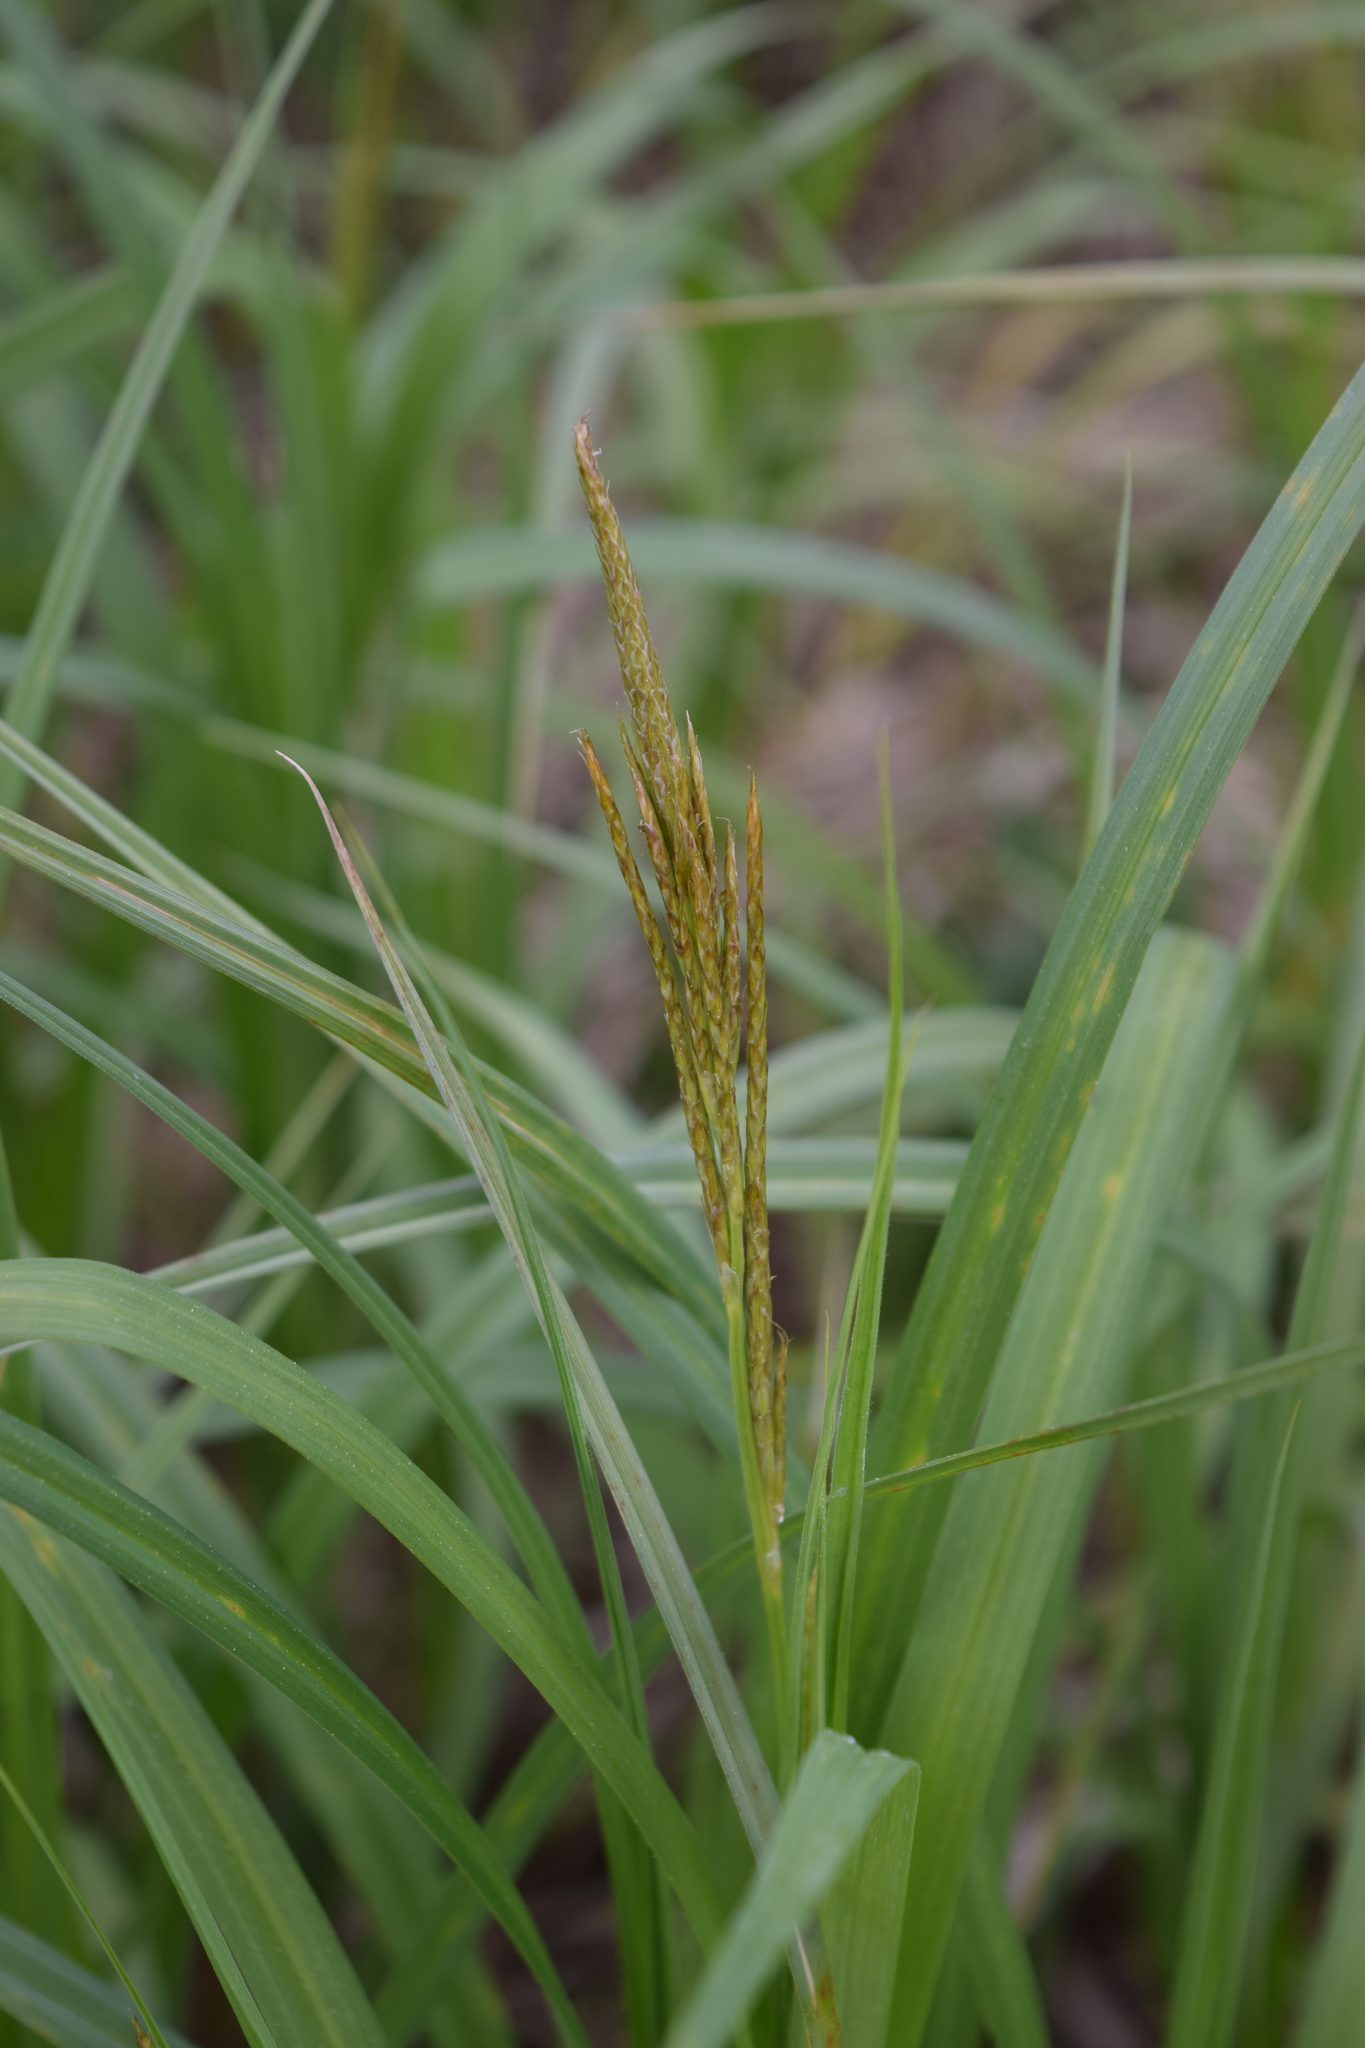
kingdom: Plantae
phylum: Tracheophyta
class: Liliopsida
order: Poales
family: Cyperaceae
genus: Carex
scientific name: Carex pseudocyperus
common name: Cyperus sedge
